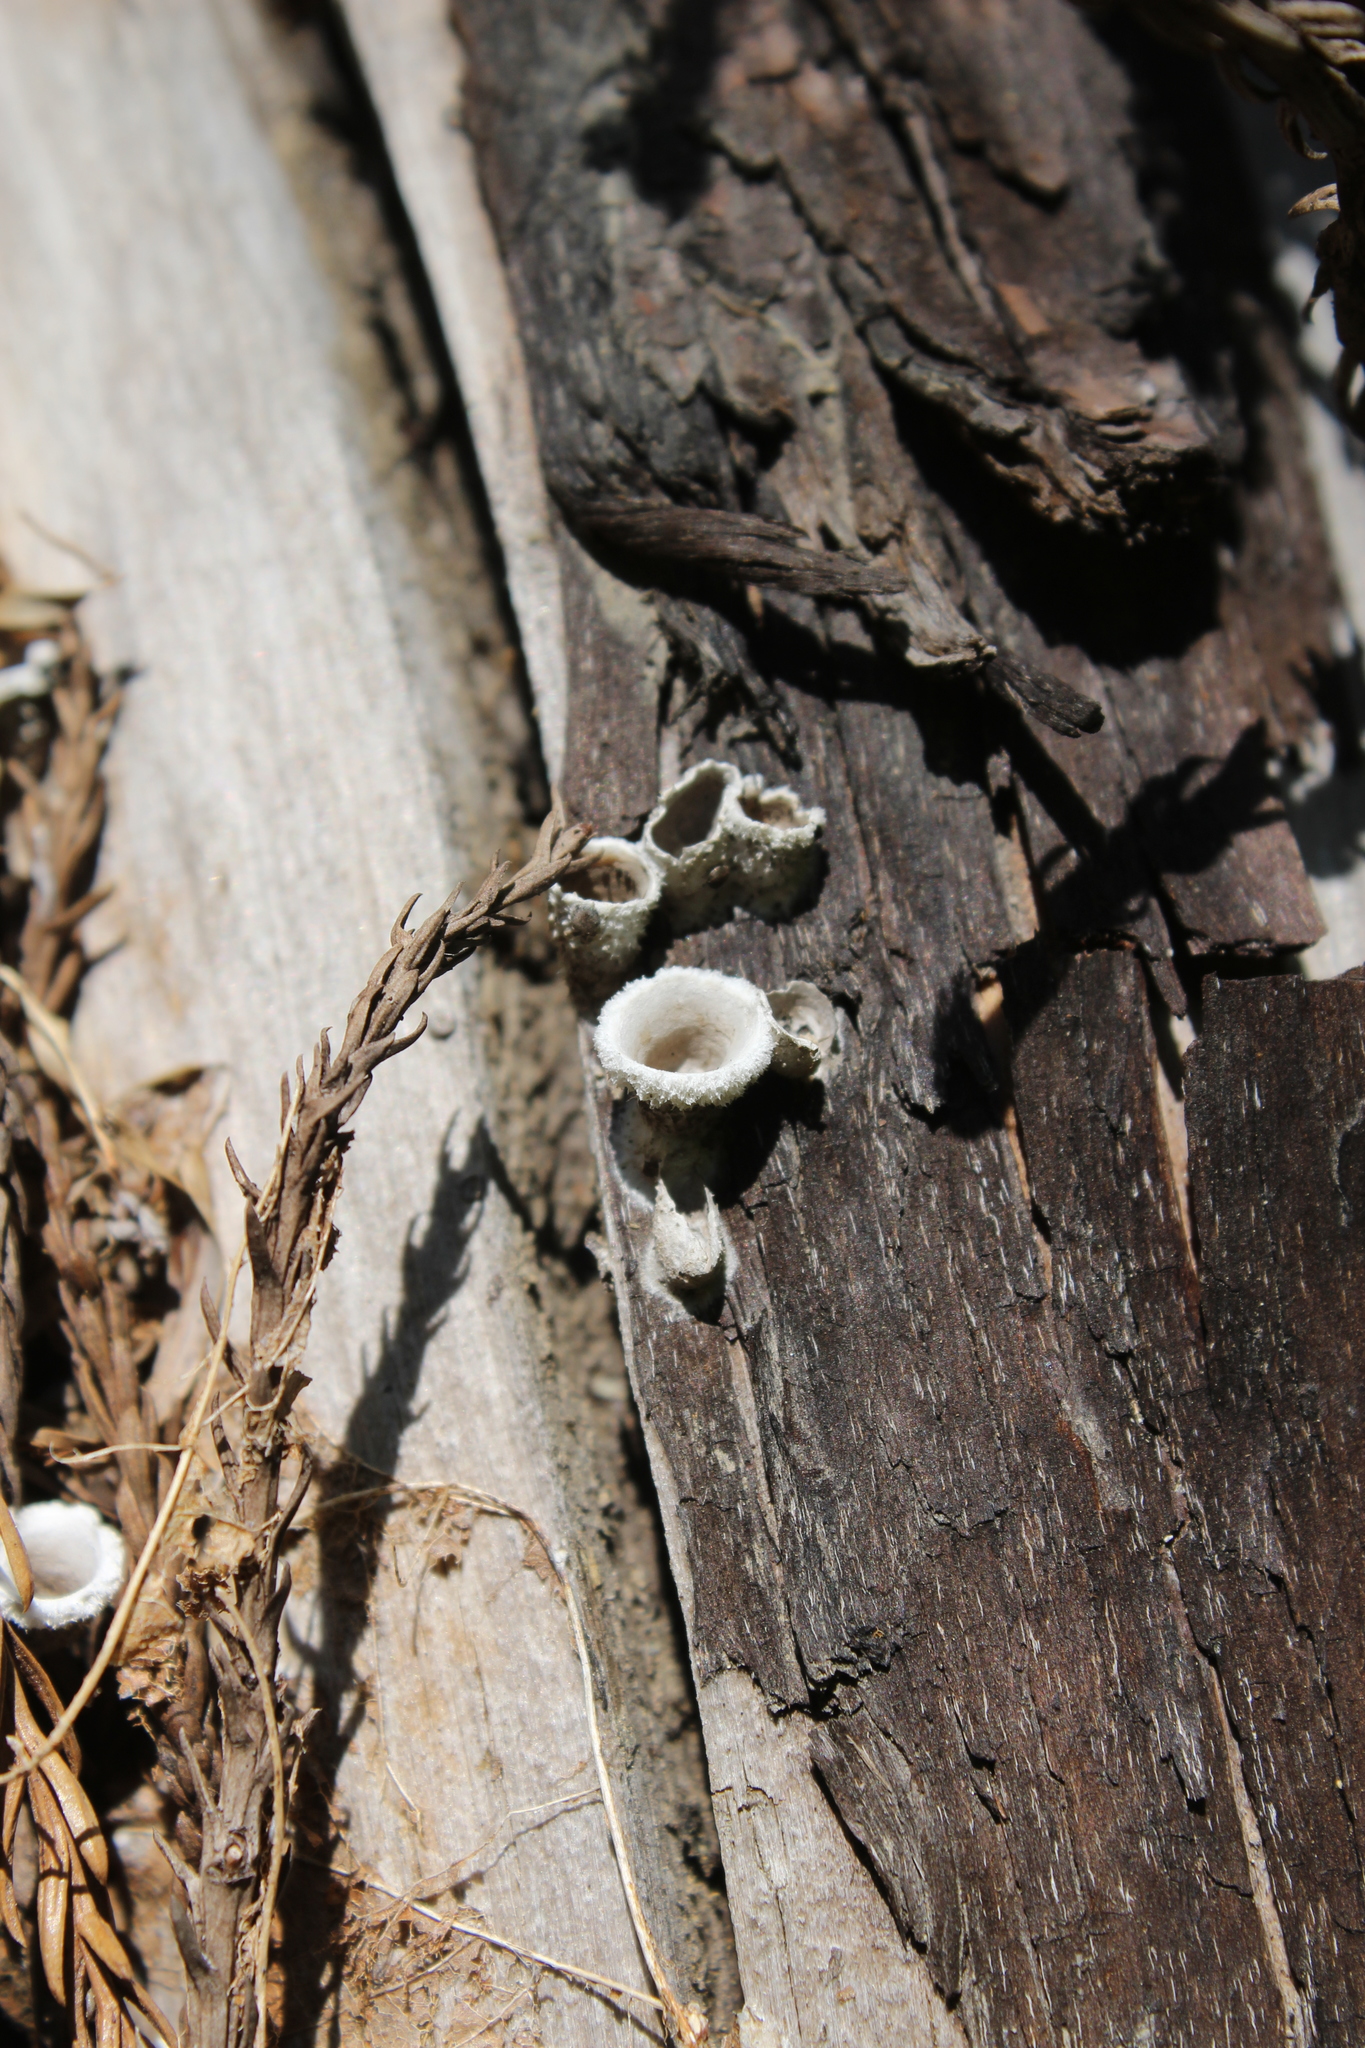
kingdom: Fungi
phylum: Basidiomycota
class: Agaricomycetes
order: Agaricales
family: Agaricaceae
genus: Nidula
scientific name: Nidula niveotomentosa
